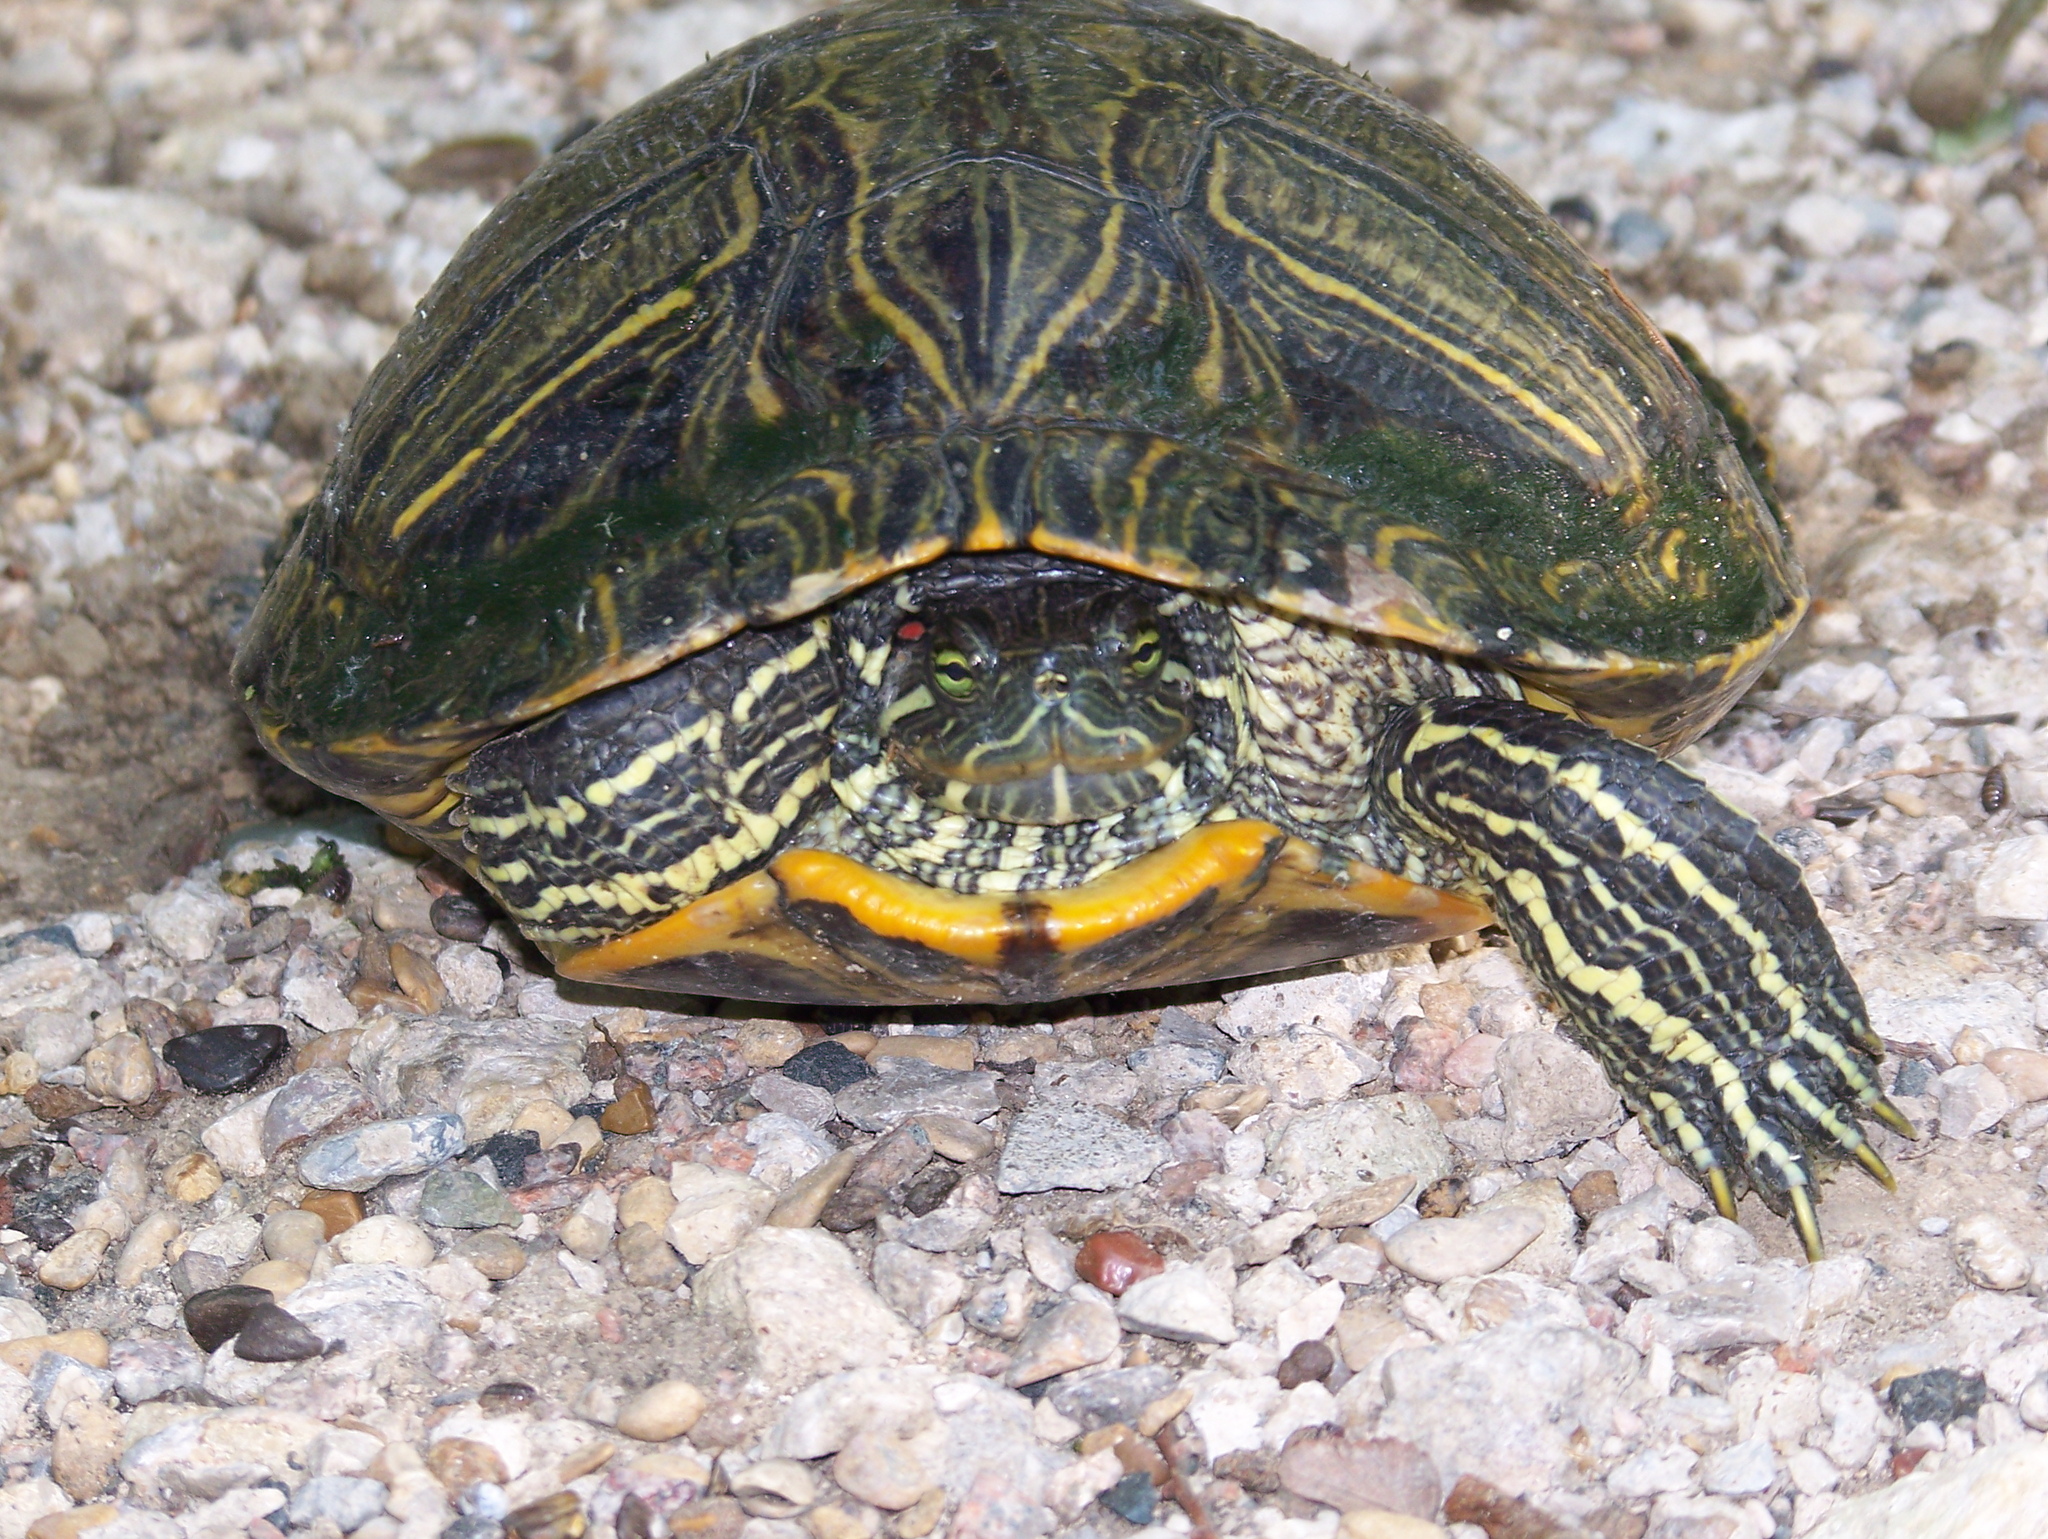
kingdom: Animalia
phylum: Chordata
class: Testudines
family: Emydidae
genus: Trachemys
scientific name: Trachemys scripta
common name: Slider
